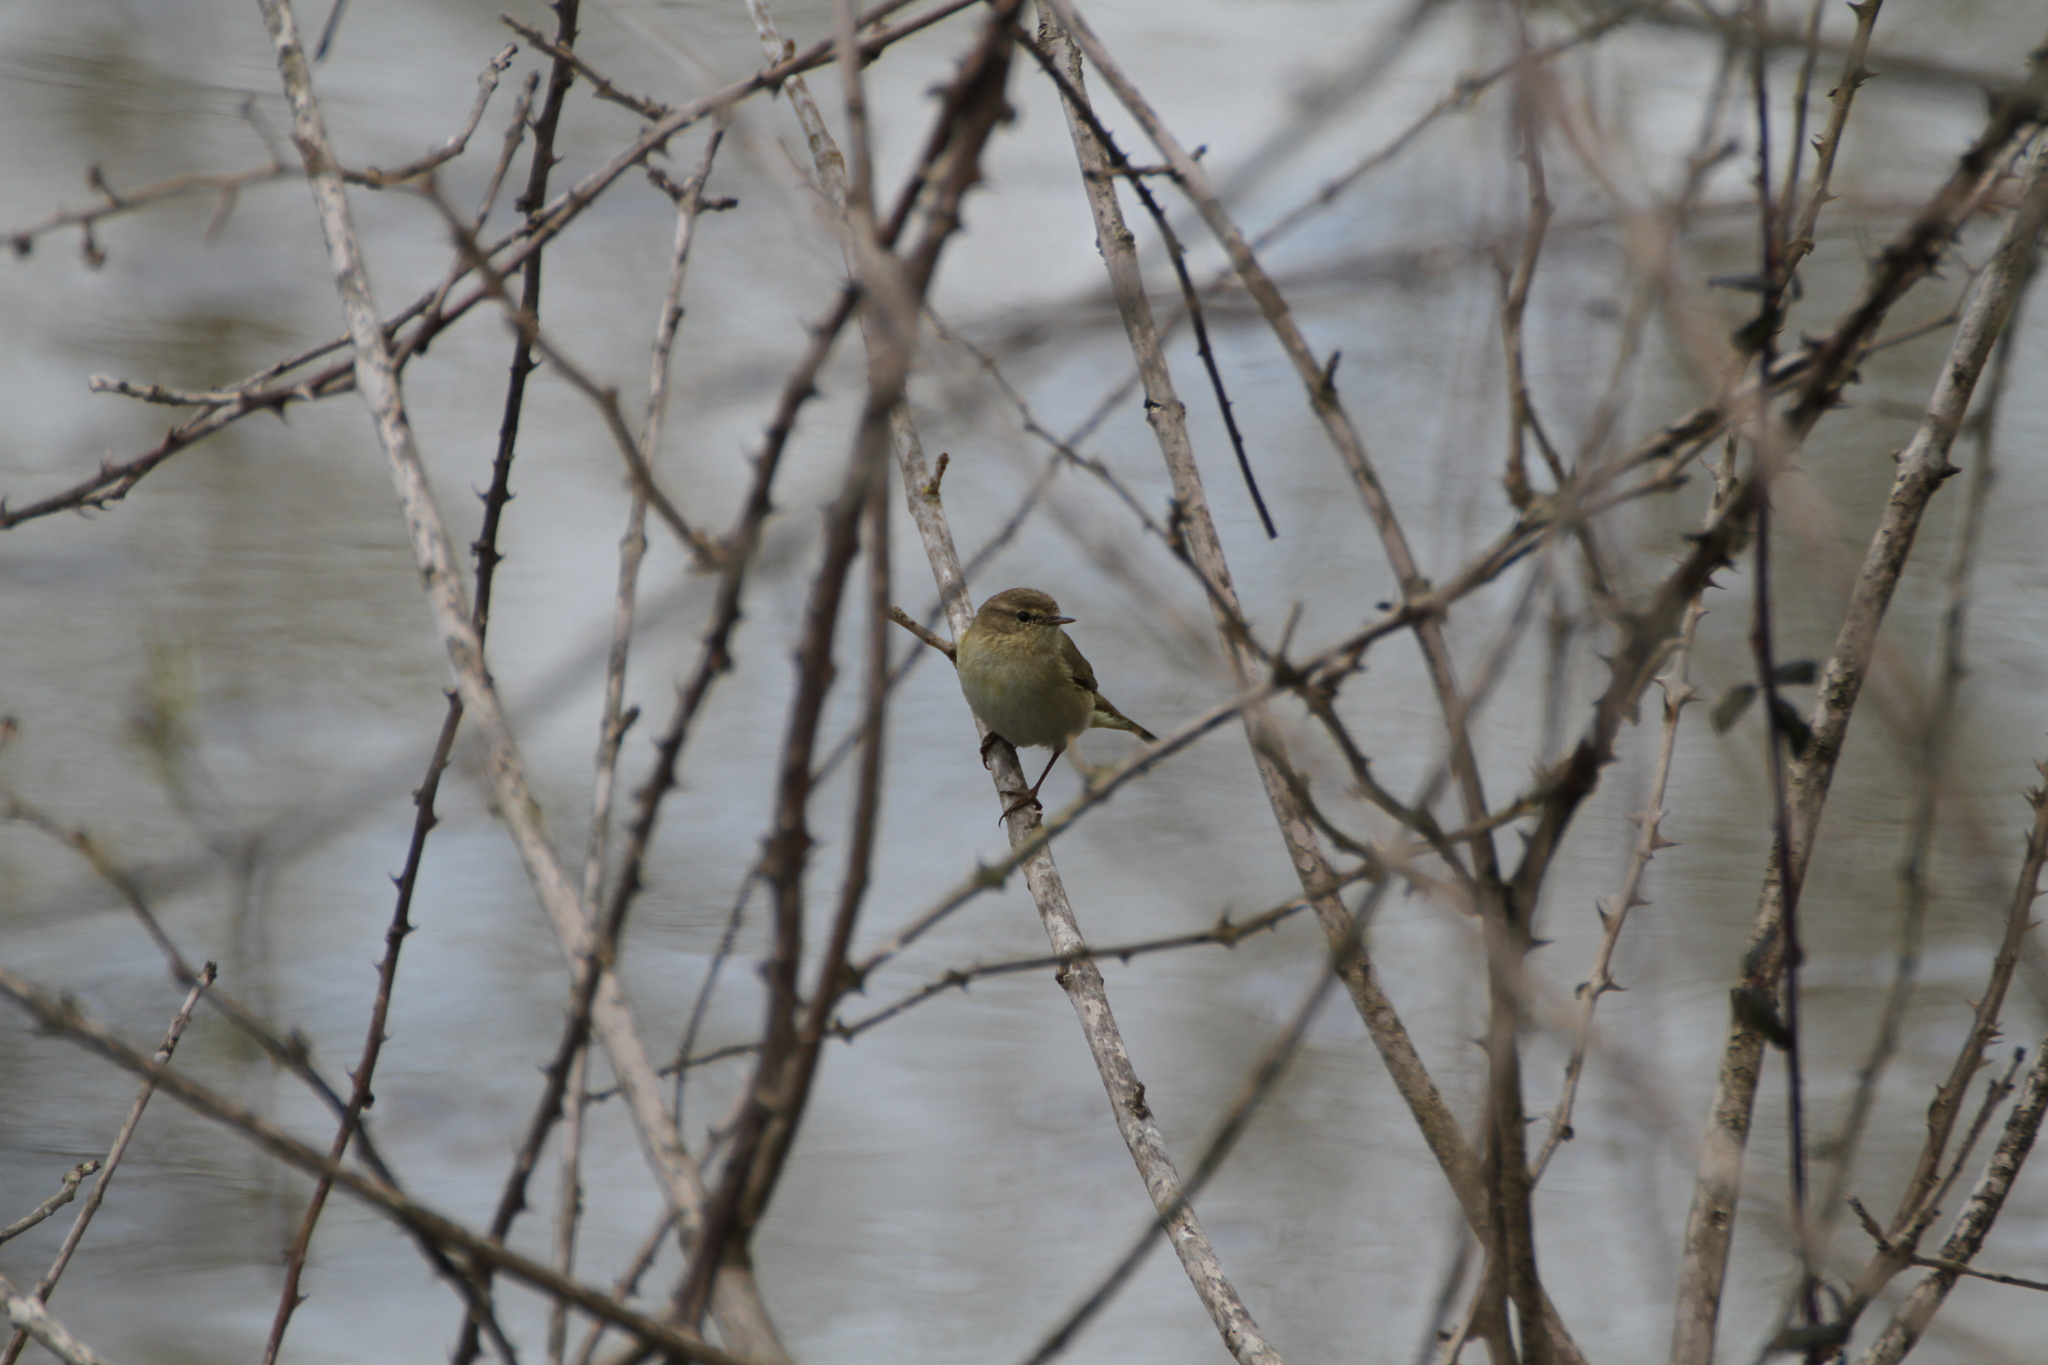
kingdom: Animalia
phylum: Chordata
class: Aves
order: Passeriformes
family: Phylloscopidae
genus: Phylloscopus
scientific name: Phylloscopus collybita
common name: Common chiffchaff
